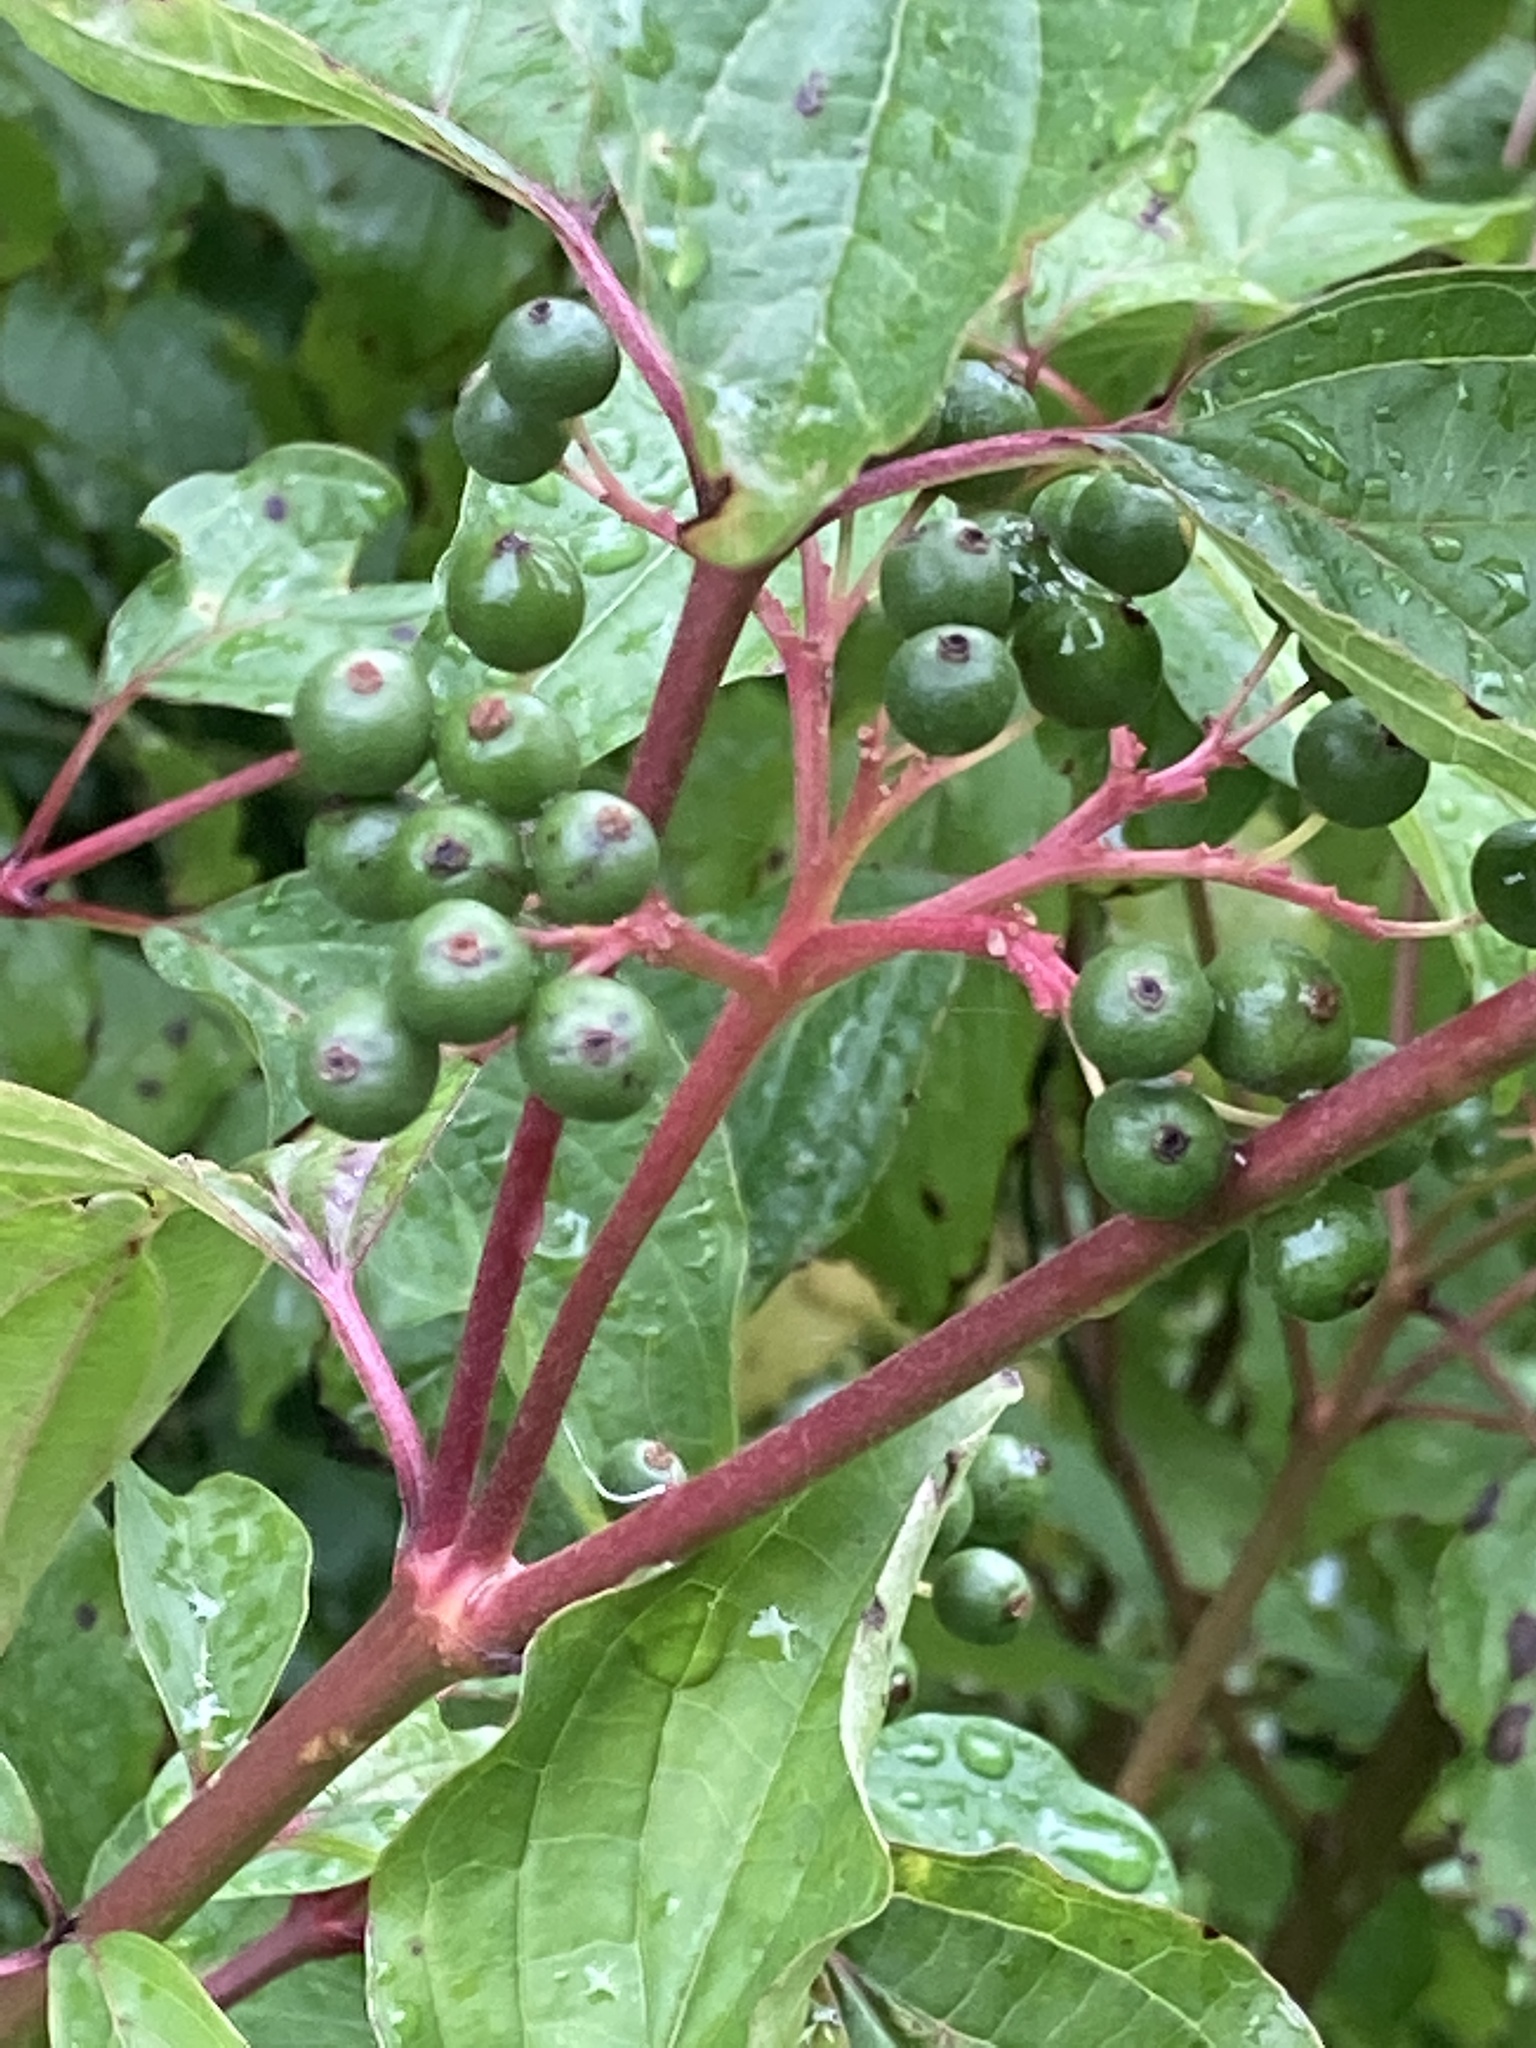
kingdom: Plantae
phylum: Tracheophyta
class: Magnoliopsida
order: Cornales
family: Cornaceae
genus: Cornus
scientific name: Cornus sanguinea
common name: Dogwood
